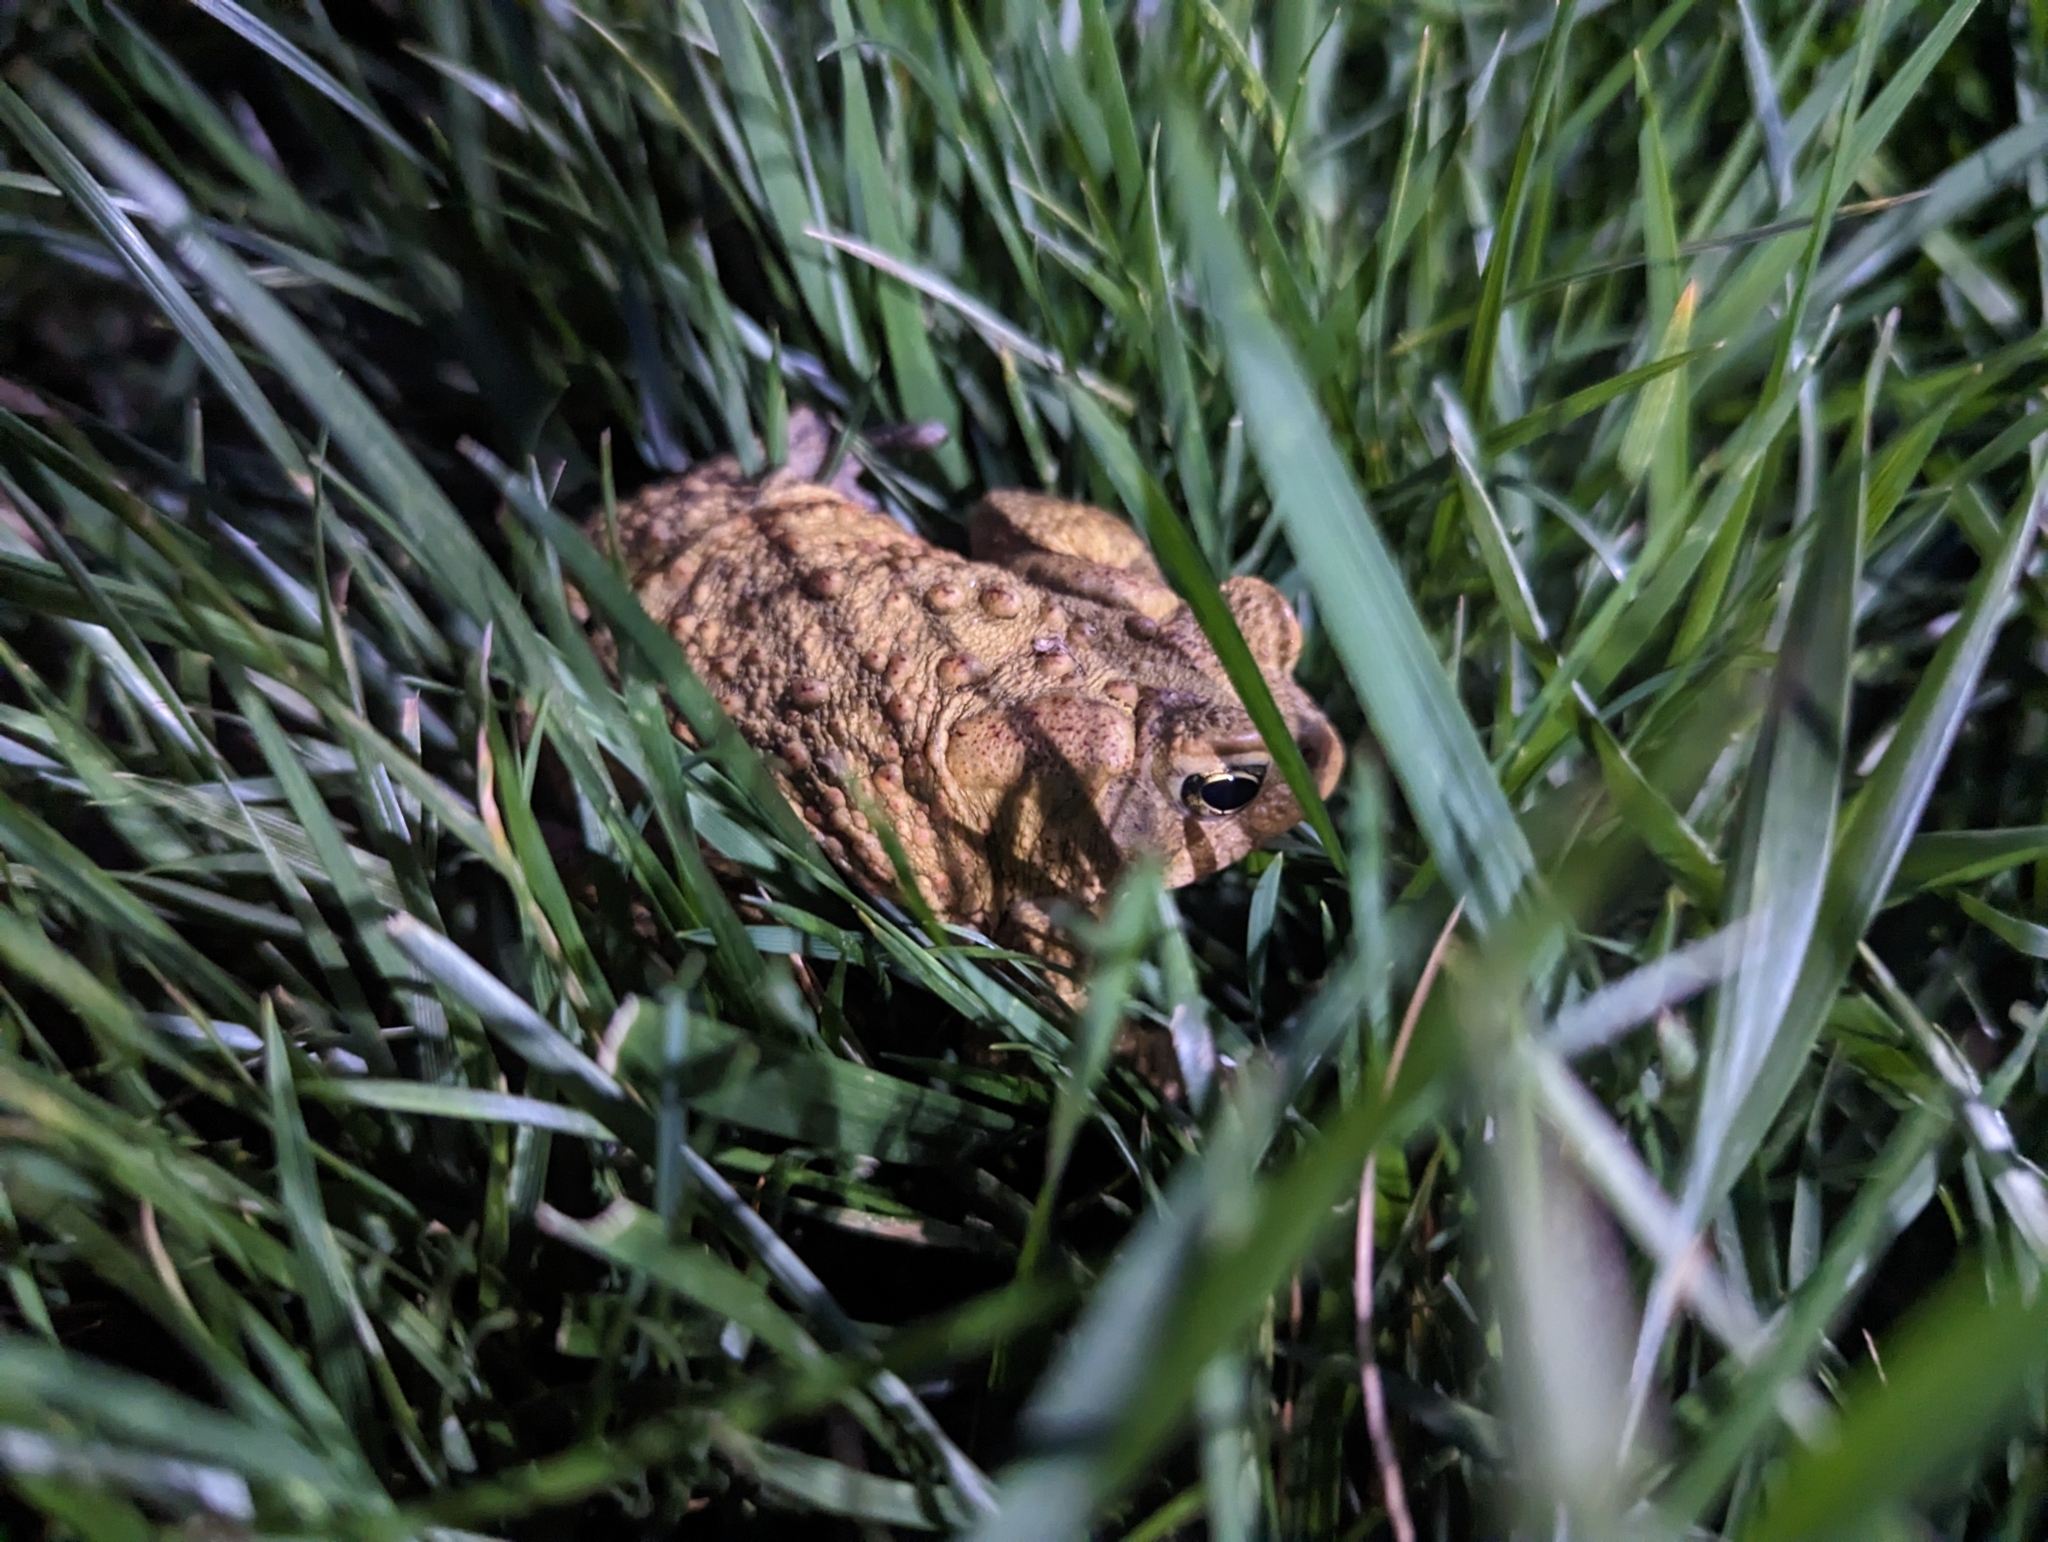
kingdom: Animalia
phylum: Chordata
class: Amphibia
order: Anura
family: Bufonidae
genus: Anaxyrus
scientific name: Anaxyrus americanus
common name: American toad
